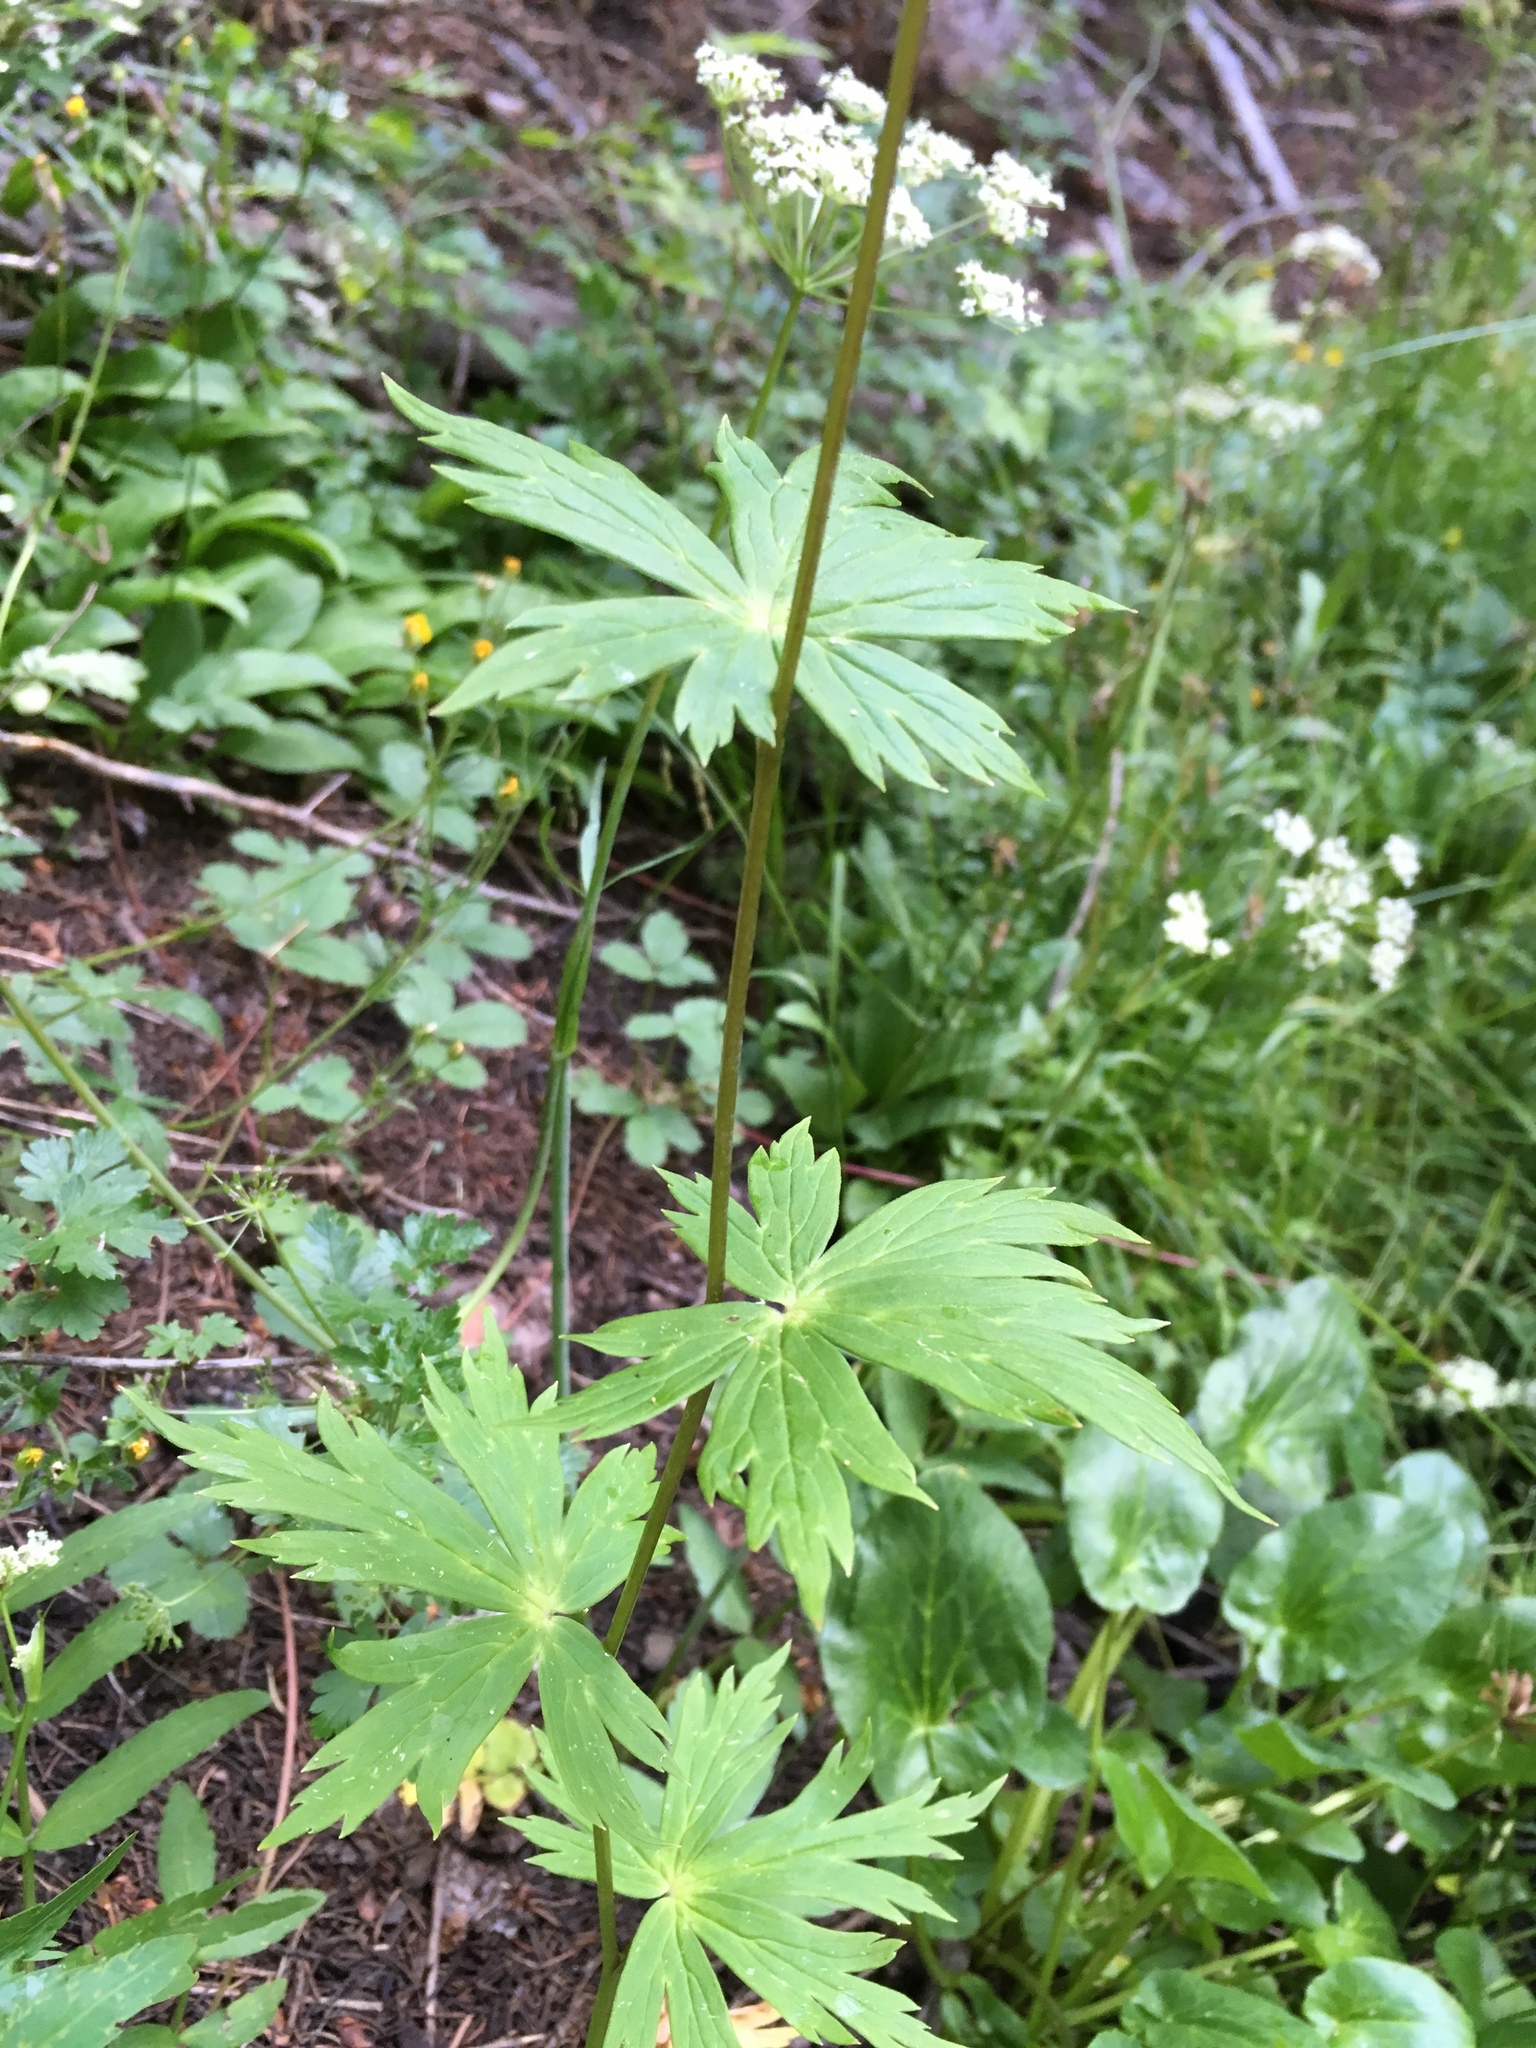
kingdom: Plantae
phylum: Tracheophyta
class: Magnoliopsida
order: Ranunculales
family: Ranunculaceae
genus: Aconitum
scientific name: Aconitum columbianum
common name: Columbia aconite
